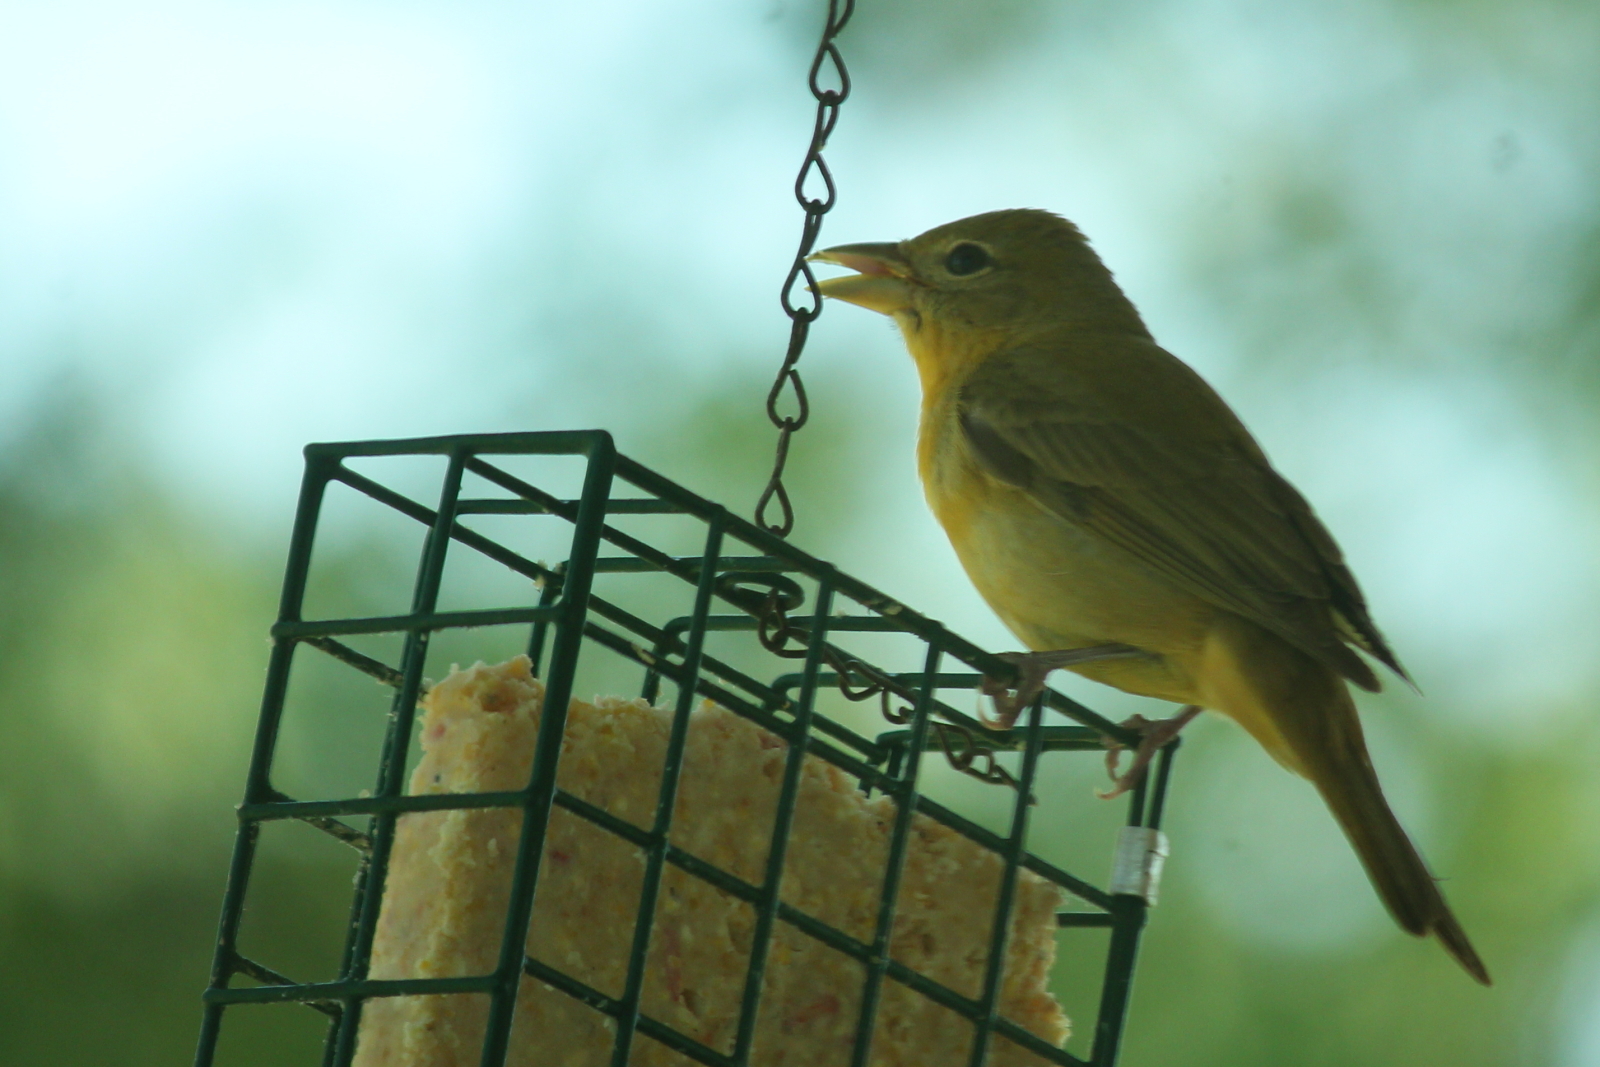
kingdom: Animalia
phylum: Chordata
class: Aves
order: Passeriformes
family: Cardinalidae
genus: Piranga
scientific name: Piranga rubra
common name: Summer tanager
